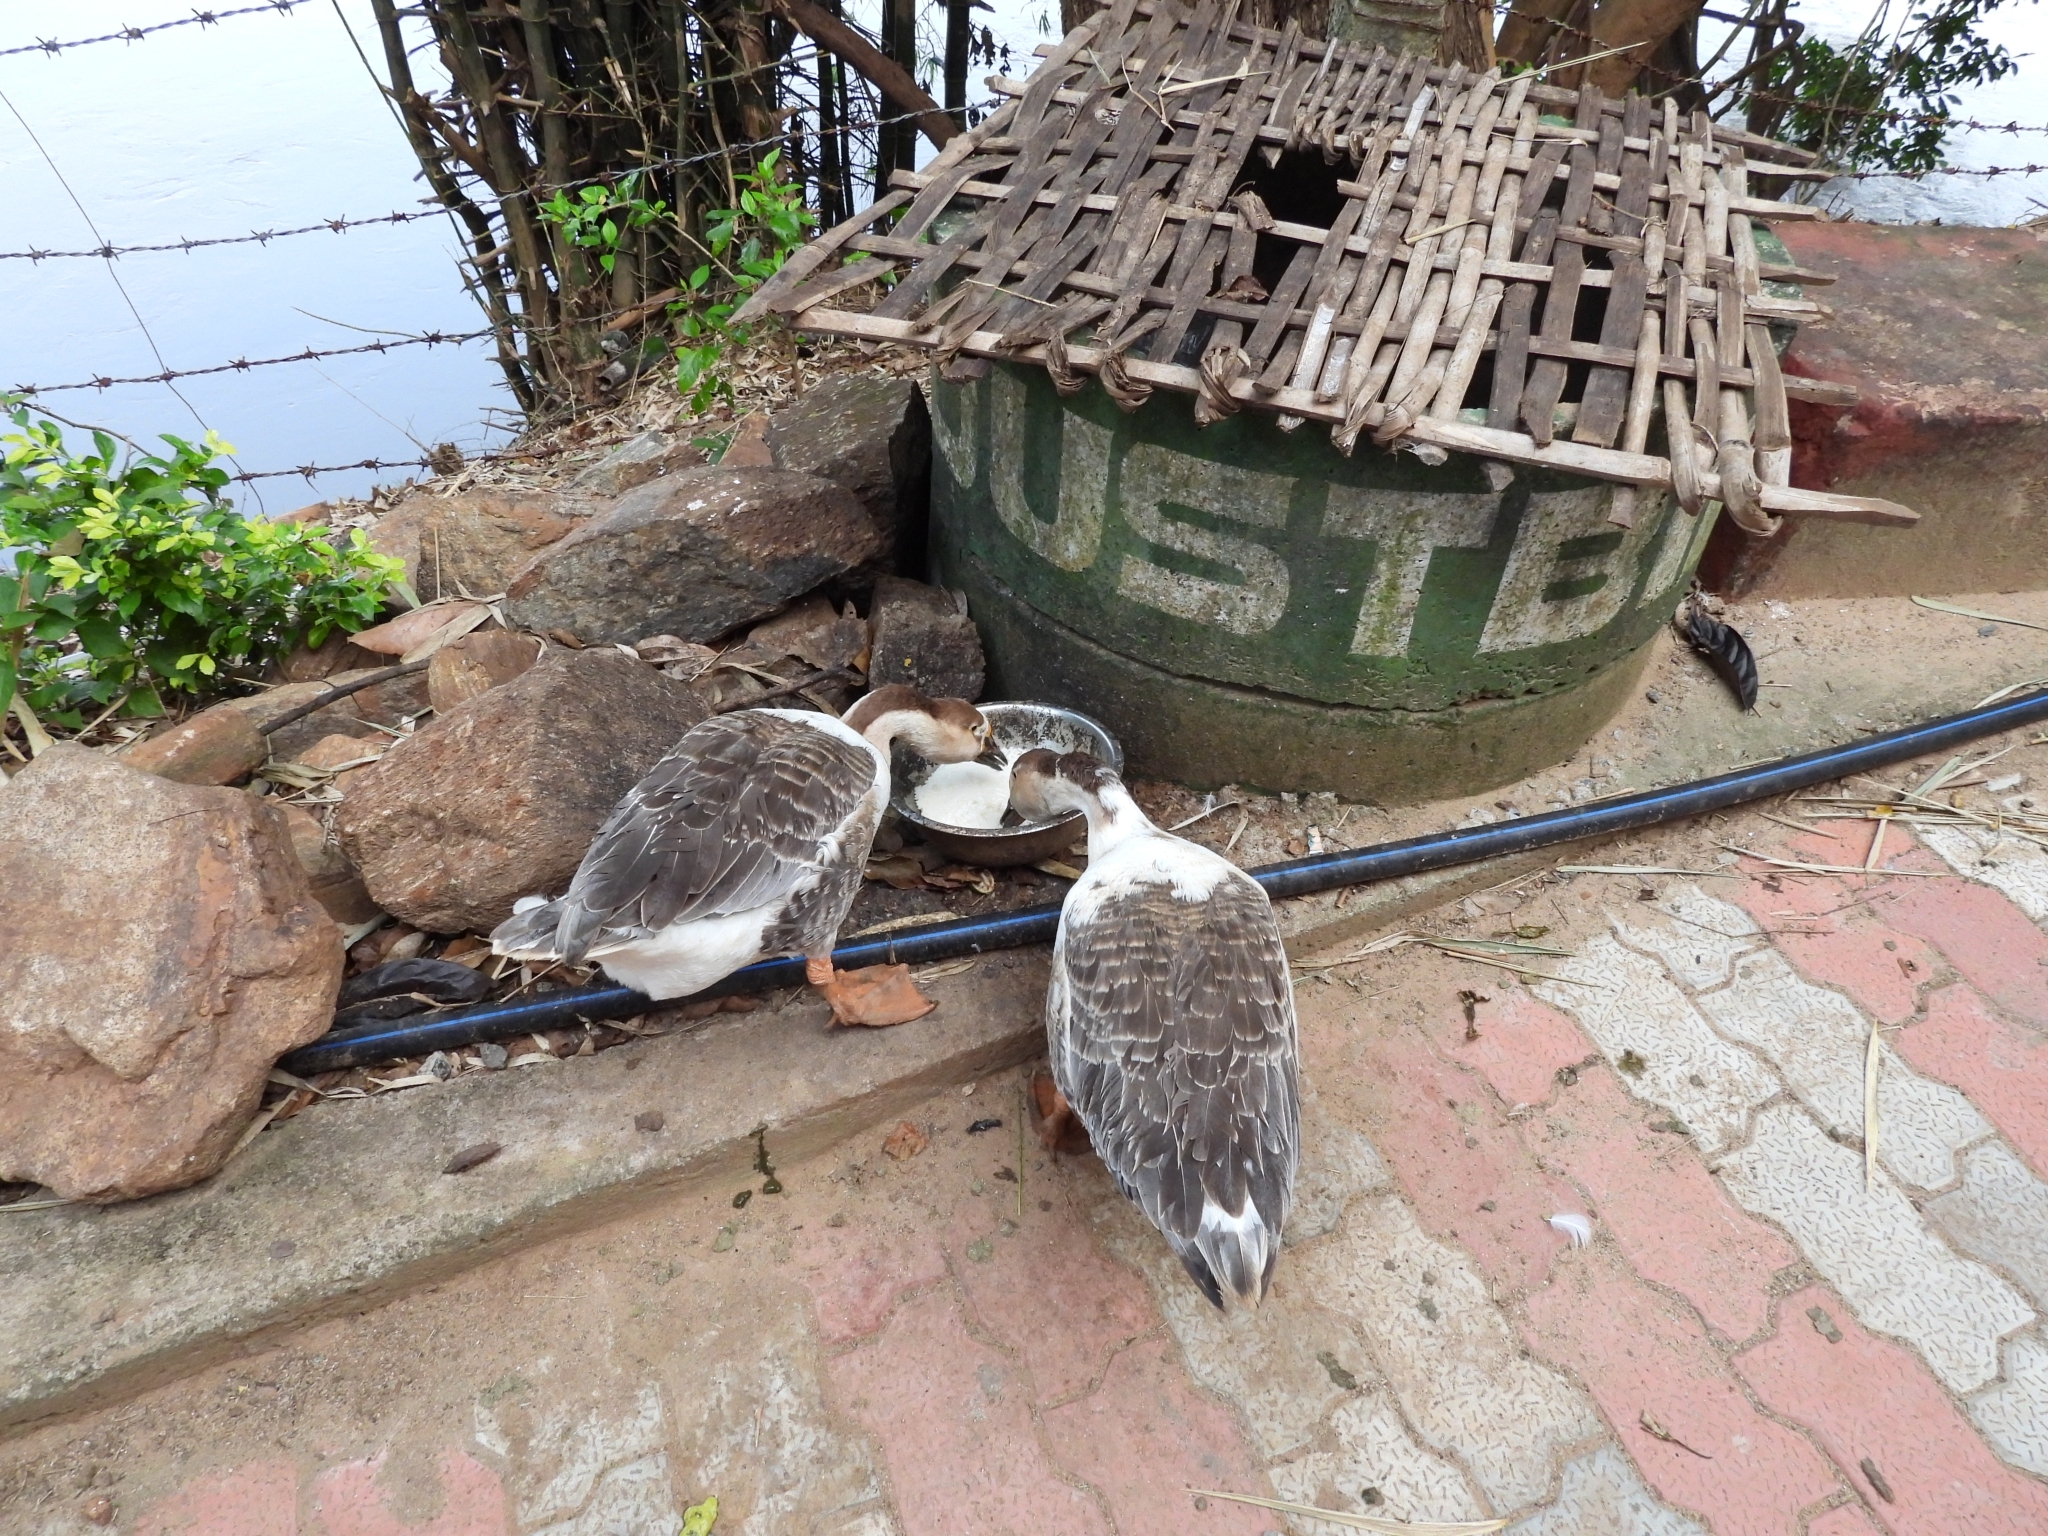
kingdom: Animalia
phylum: Chordata
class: Aves
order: Anseriformes
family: Anatidae
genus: Anser
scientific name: Anser cygnoides
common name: Swan goose
